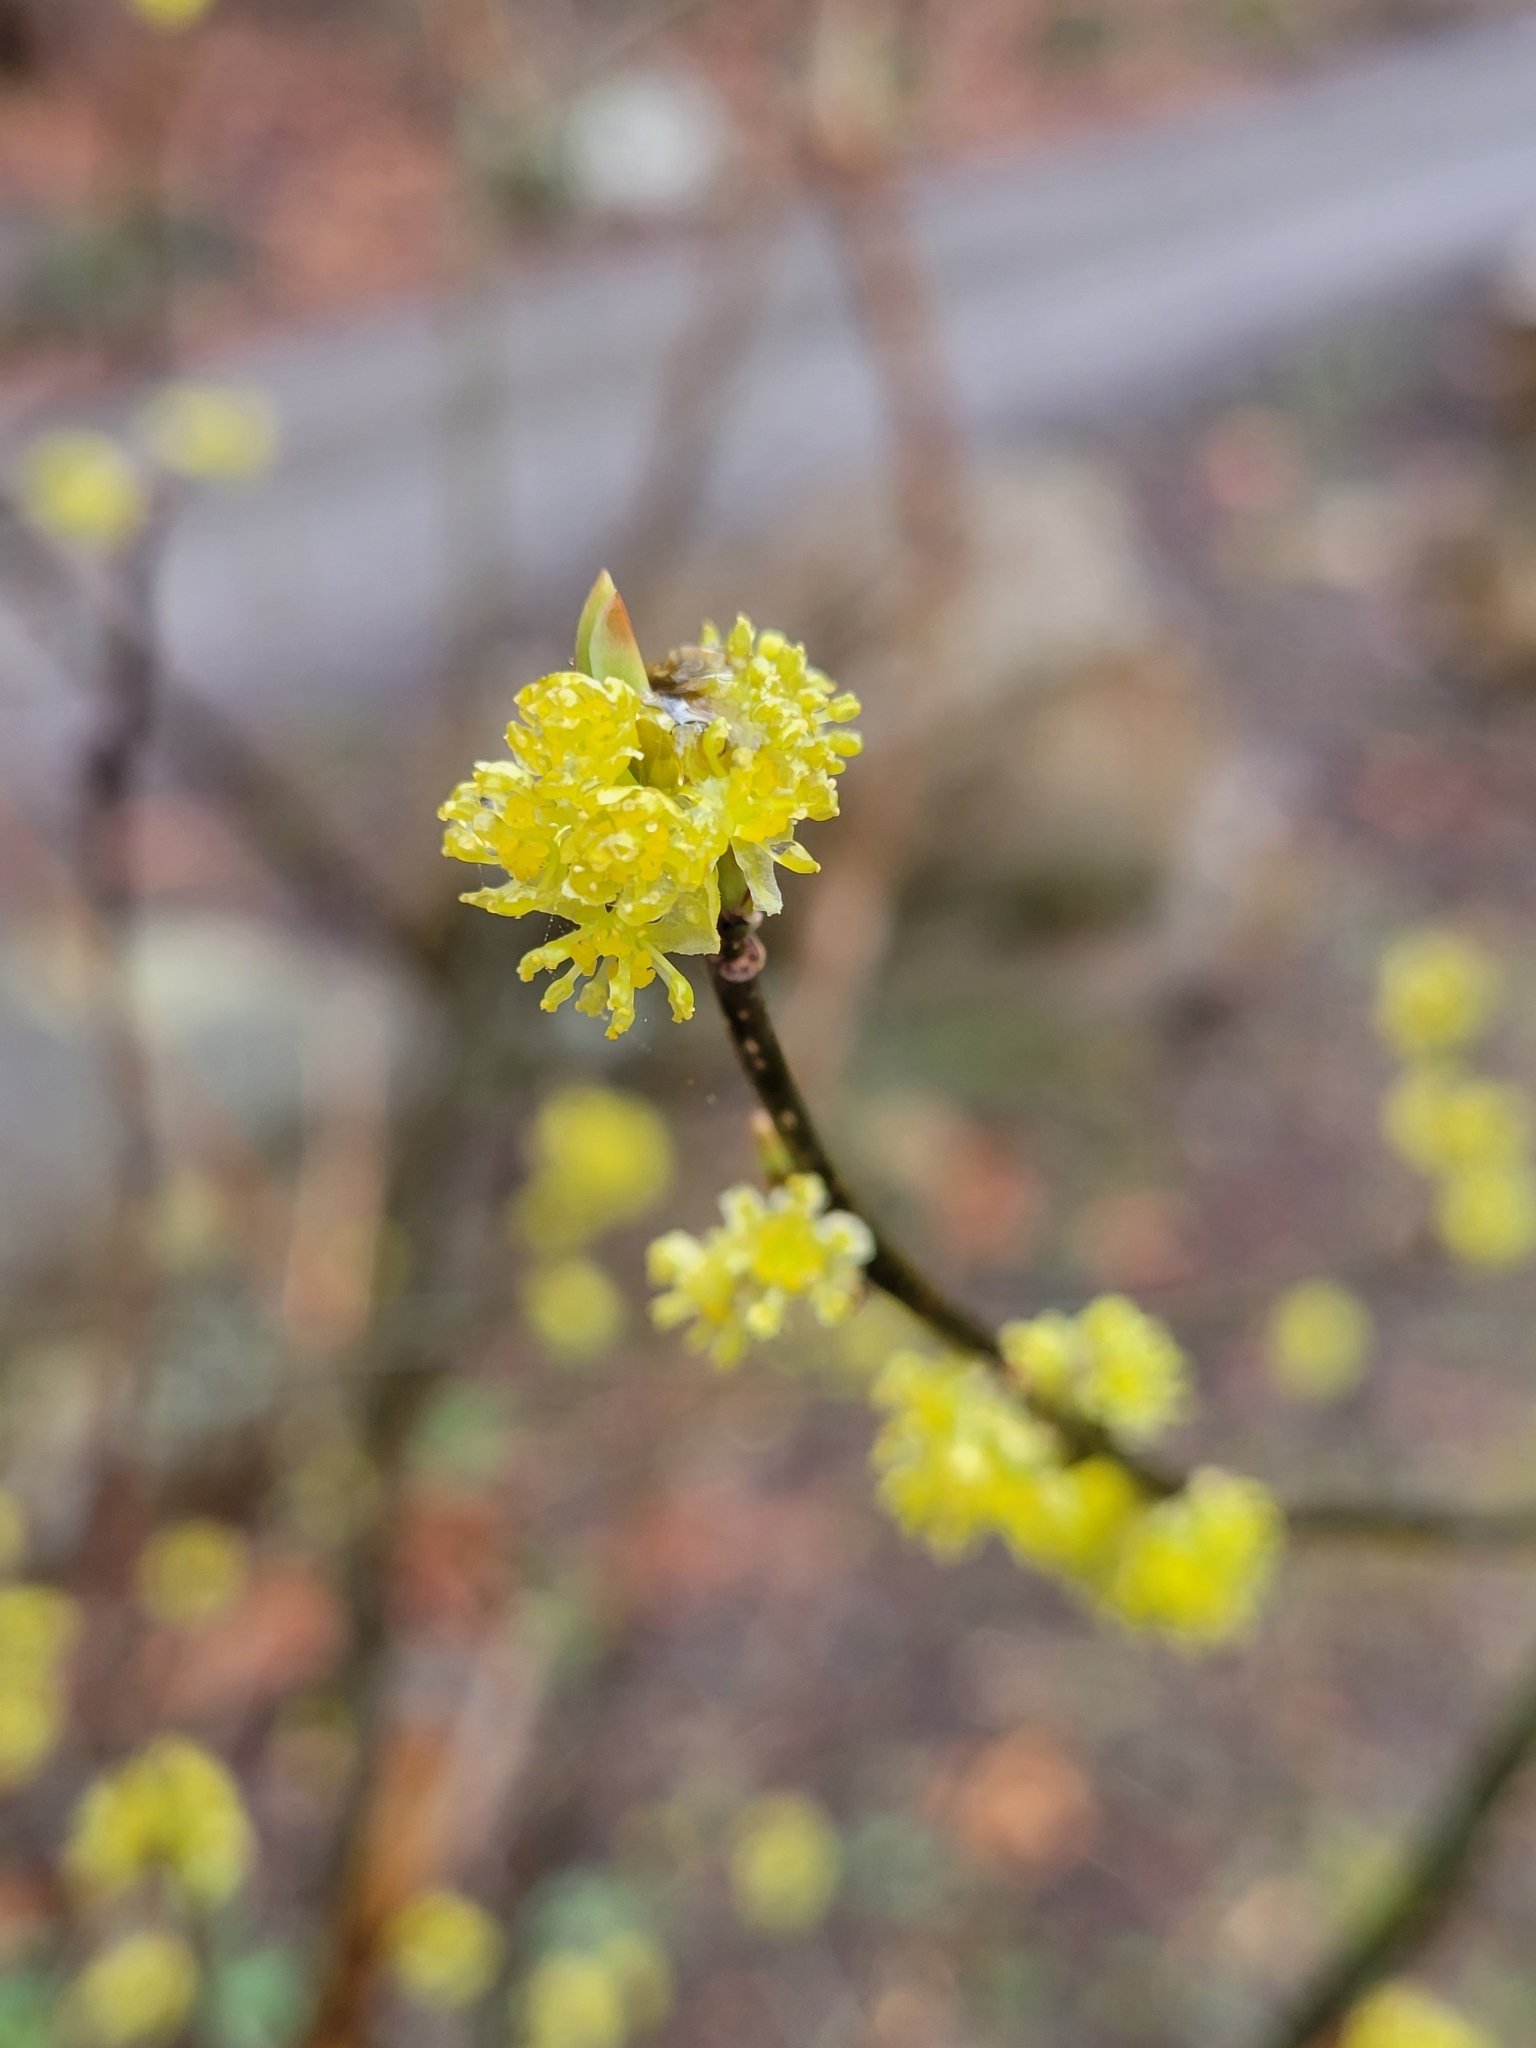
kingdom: Plantae
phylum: Tracheophyta
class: Magnoliopsida
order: Laurales
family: Lauraceae
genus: Lindera
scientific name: Lindera benzoin
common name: Spicebush
